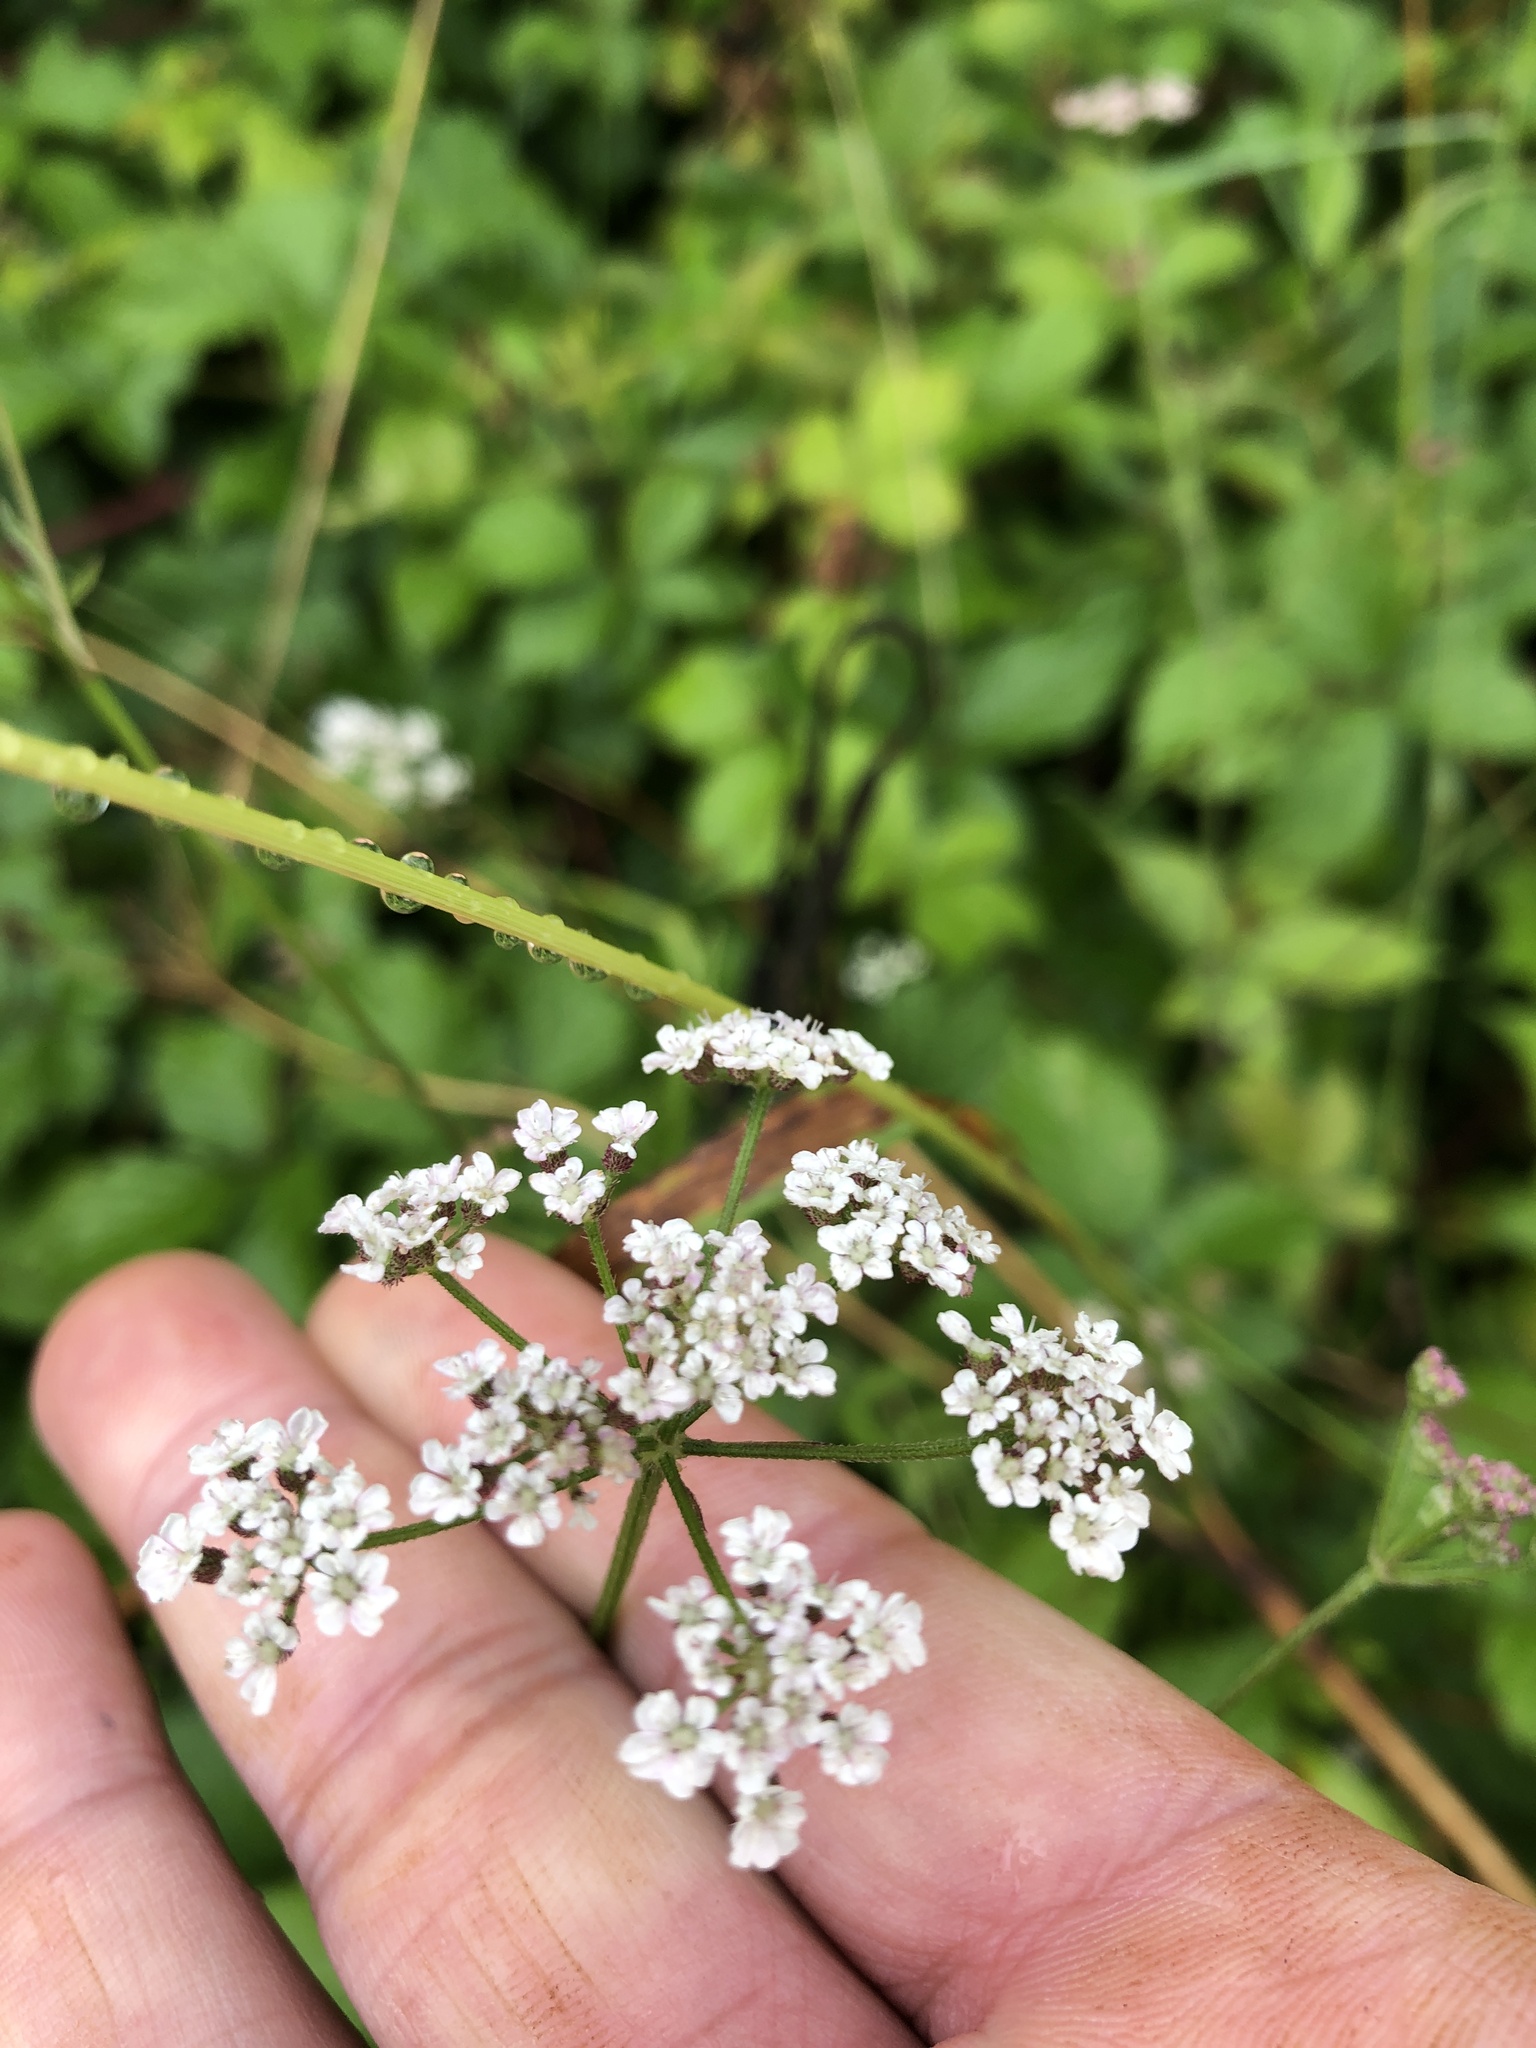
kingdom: Plantae
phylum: Tracheophyta
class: Magnoliopsida
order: Apiales
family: Apiaceae
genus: Heracleum
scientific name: Heracleum sphondylium
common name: Hogweed
